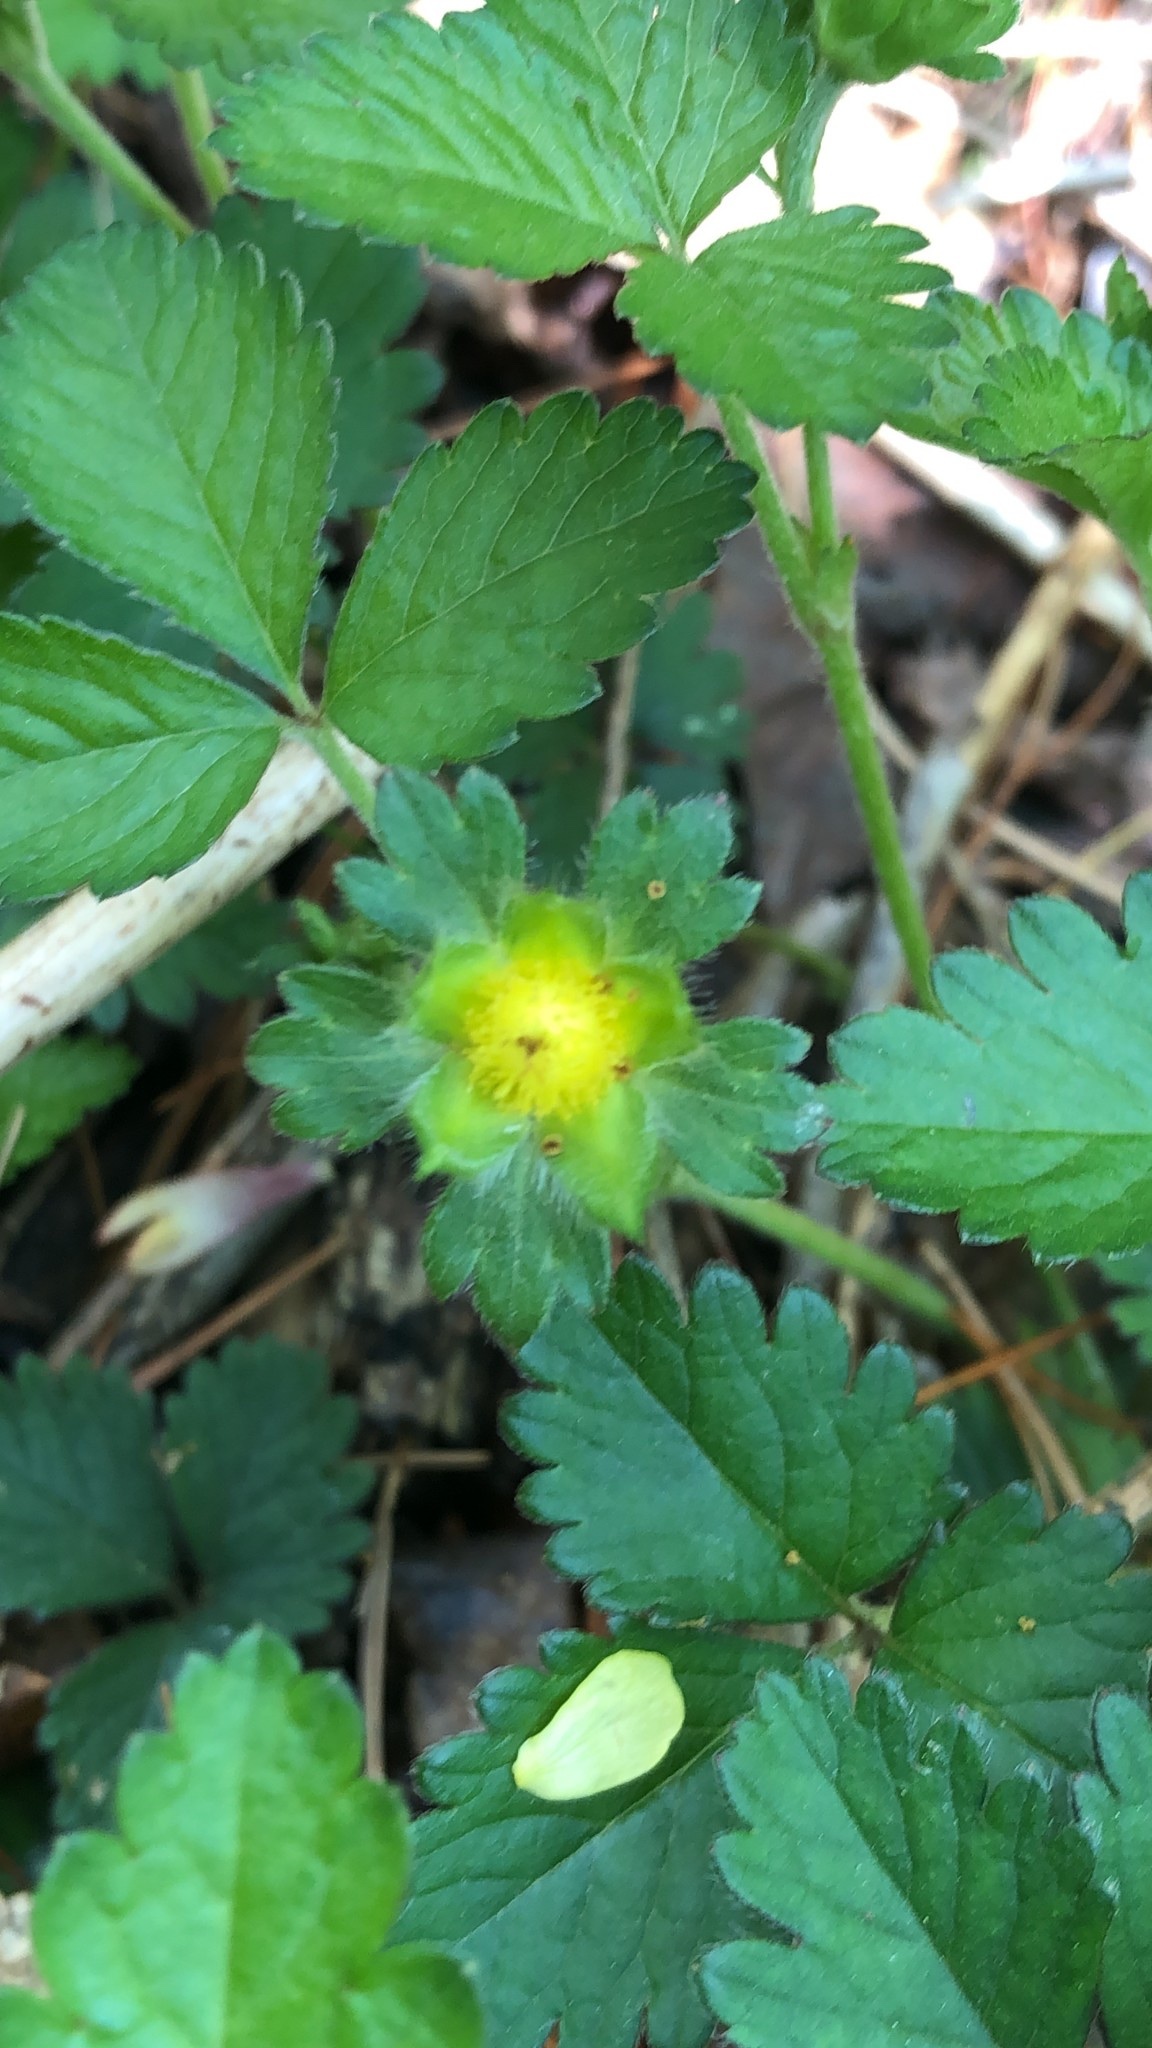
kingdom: Plantae
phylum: Tracheophyta
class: Magnoliopsida
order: Rosales
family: Rosaceae
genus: Potentilla
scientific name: Potentilla indica
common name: Yellow-flowered strawberry
